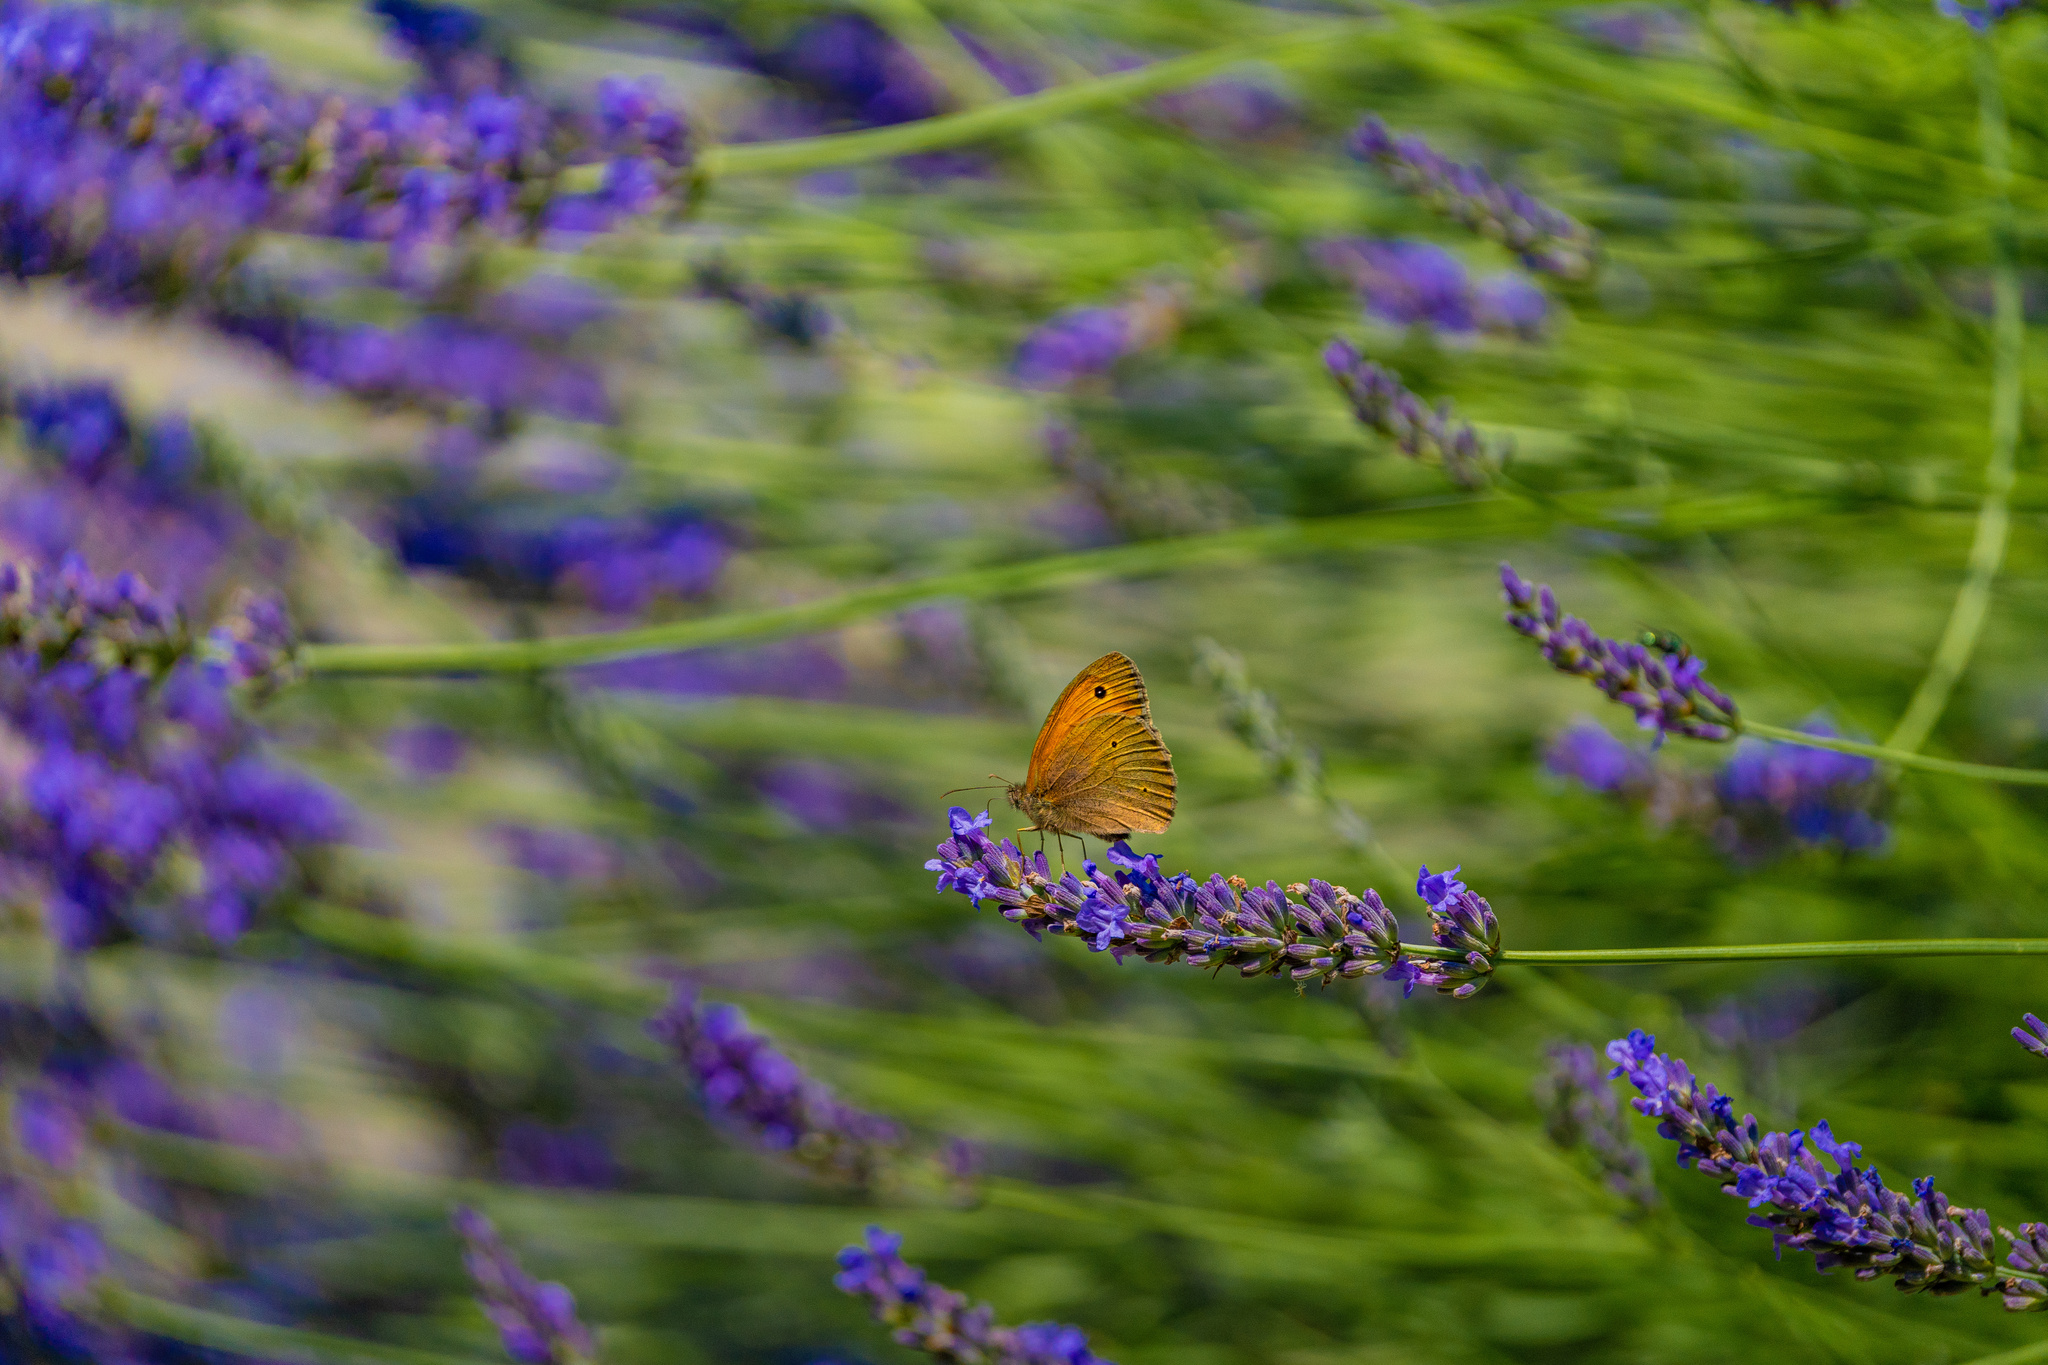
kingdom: Animalia
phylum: Arthropoda
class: Insecta
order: Lepidoptera
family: Nymphalidae
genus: Maniola
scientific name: Maniola jurtina
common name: Meadow brown
